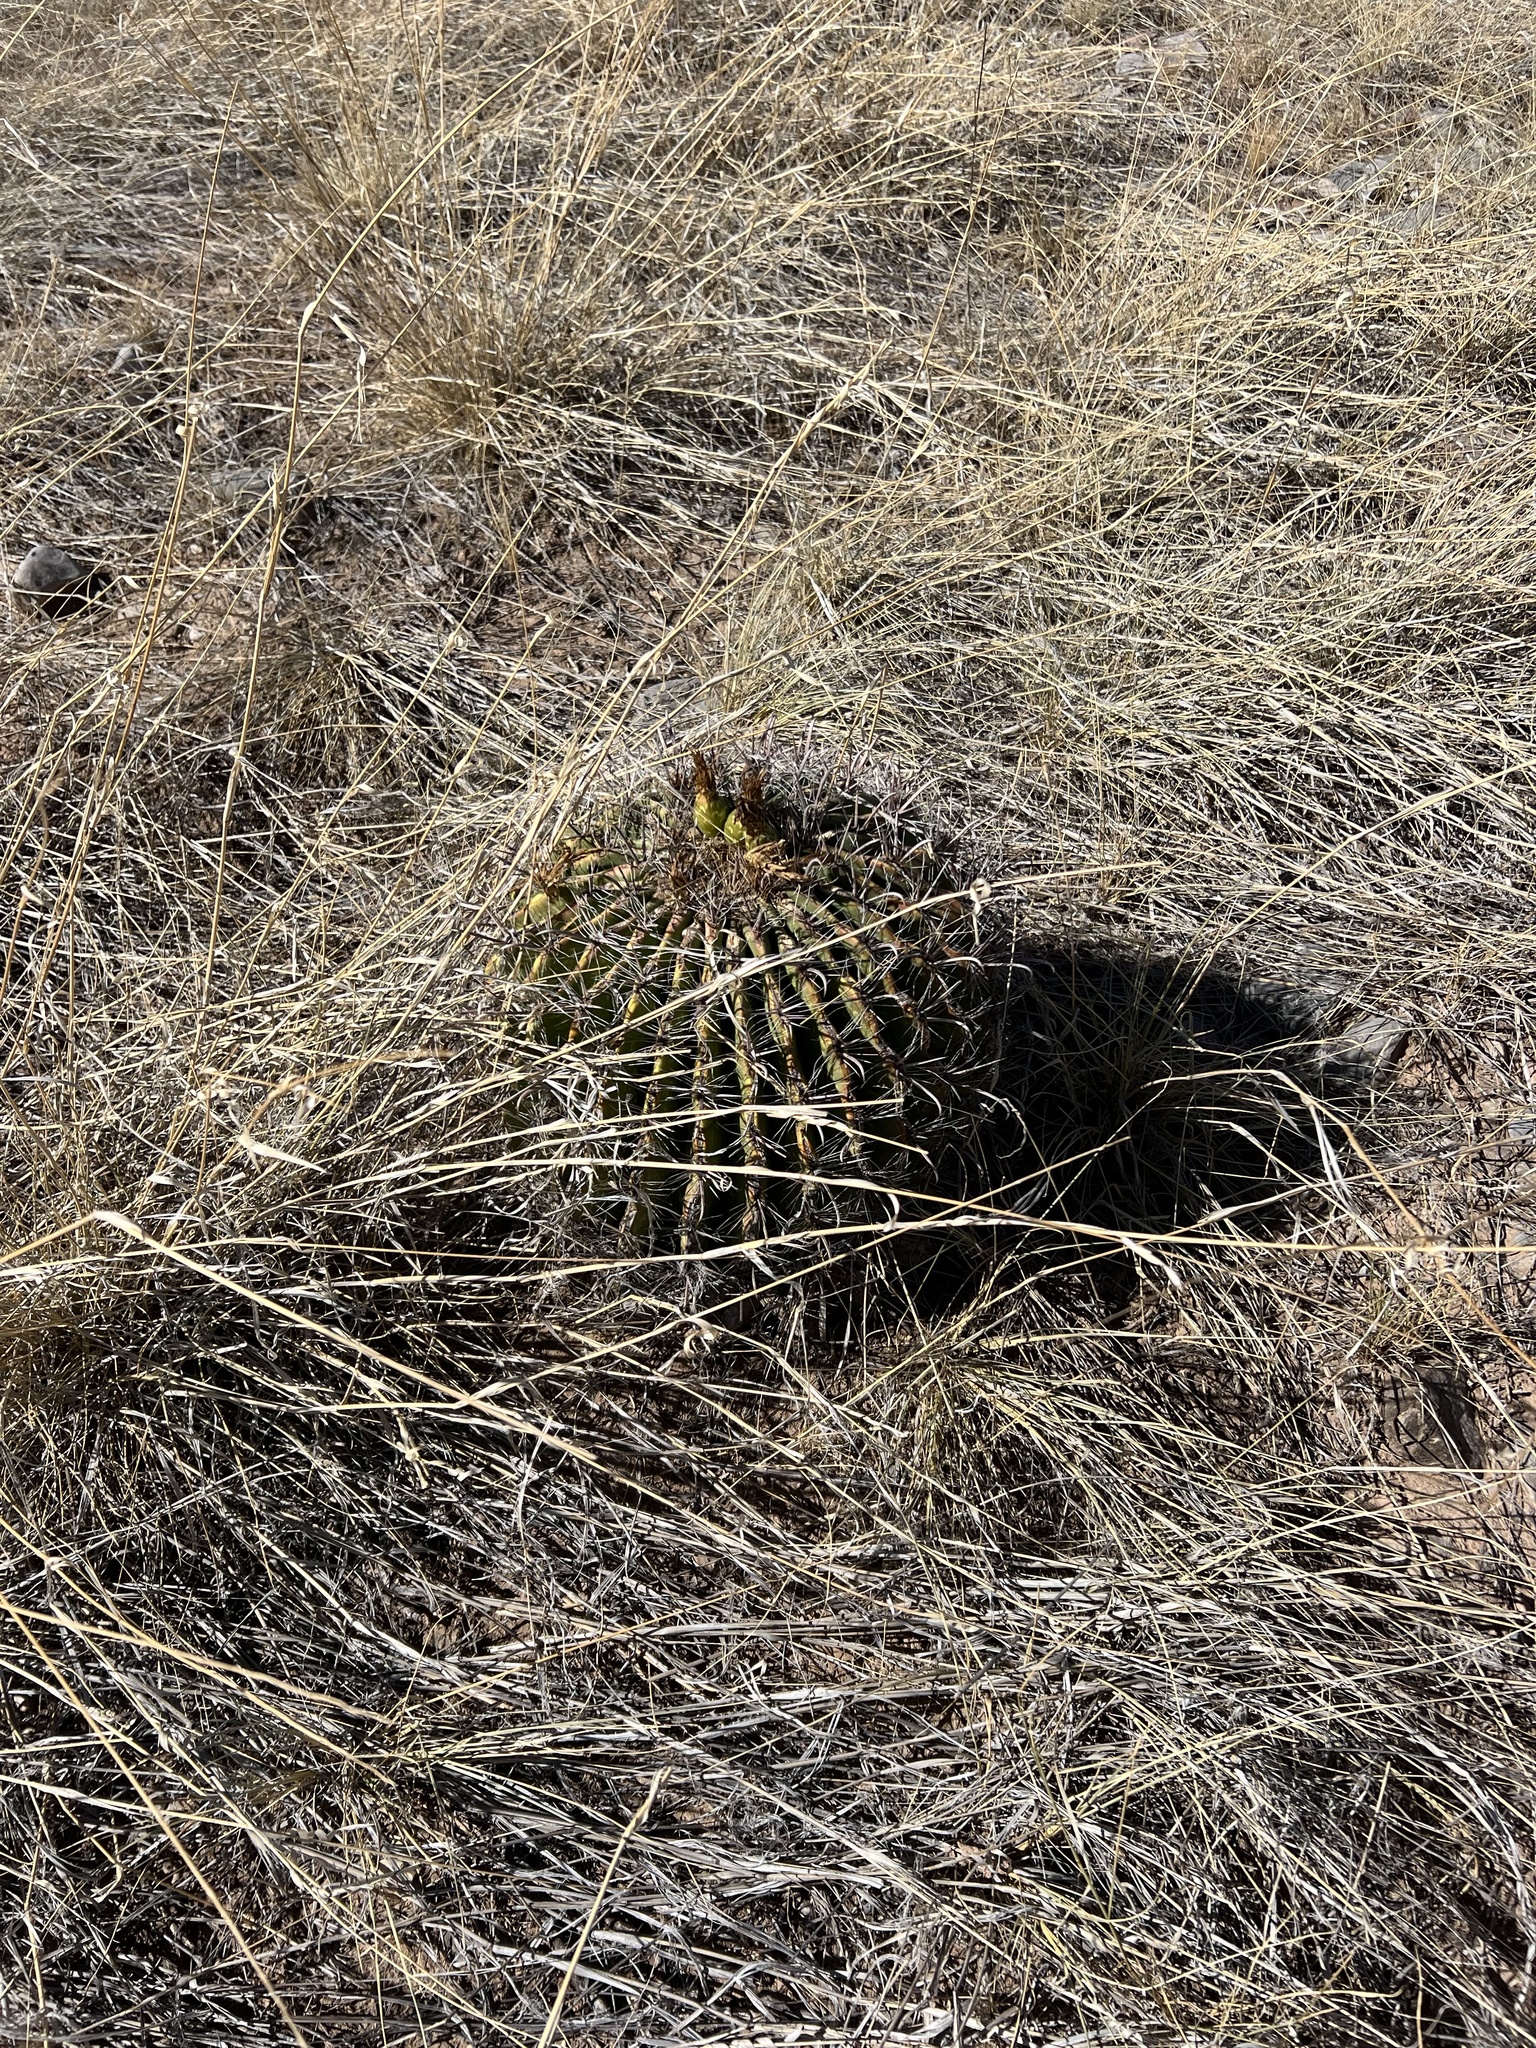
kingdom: Plantae
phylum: Tracheophyta
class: Magnoliopsida
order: Caryophyllales
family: Cactaceae
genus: Ferocactus
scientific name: Ferocactus wislizeni
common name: Candy barrel cactus
